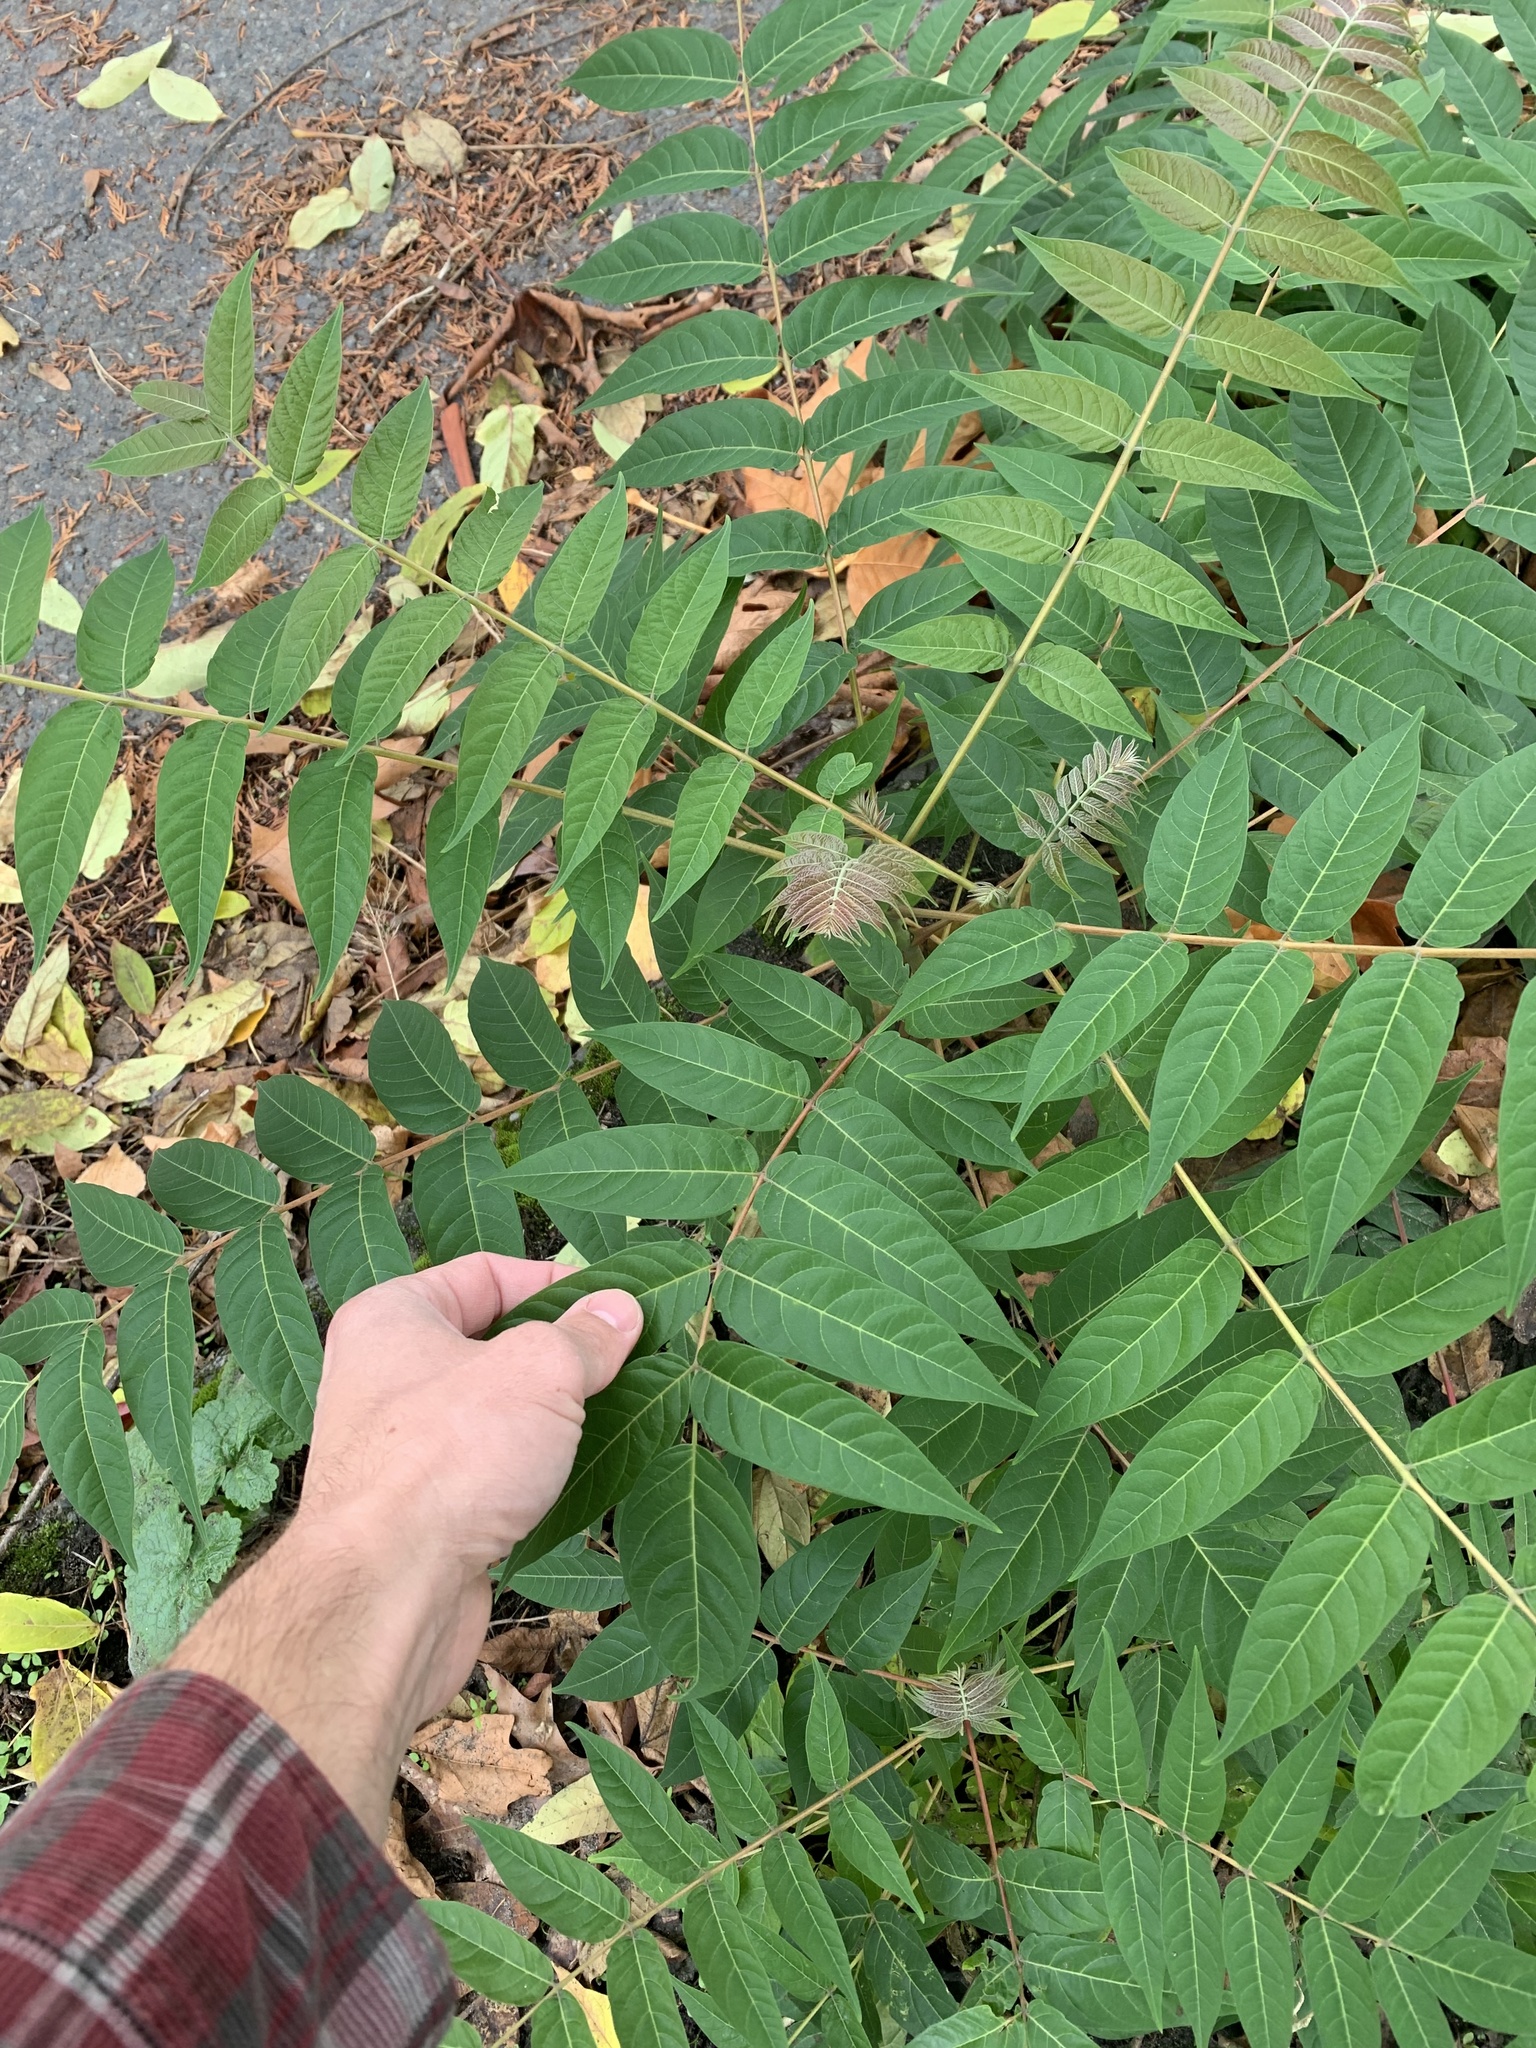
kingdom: Plantae
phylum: Tracheophyta
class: Magnoliopsida
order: Sapindales
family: Simaroubaceae
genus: Ailanthus
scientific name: Ailanthus altissima
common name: Tree-of-heaven
